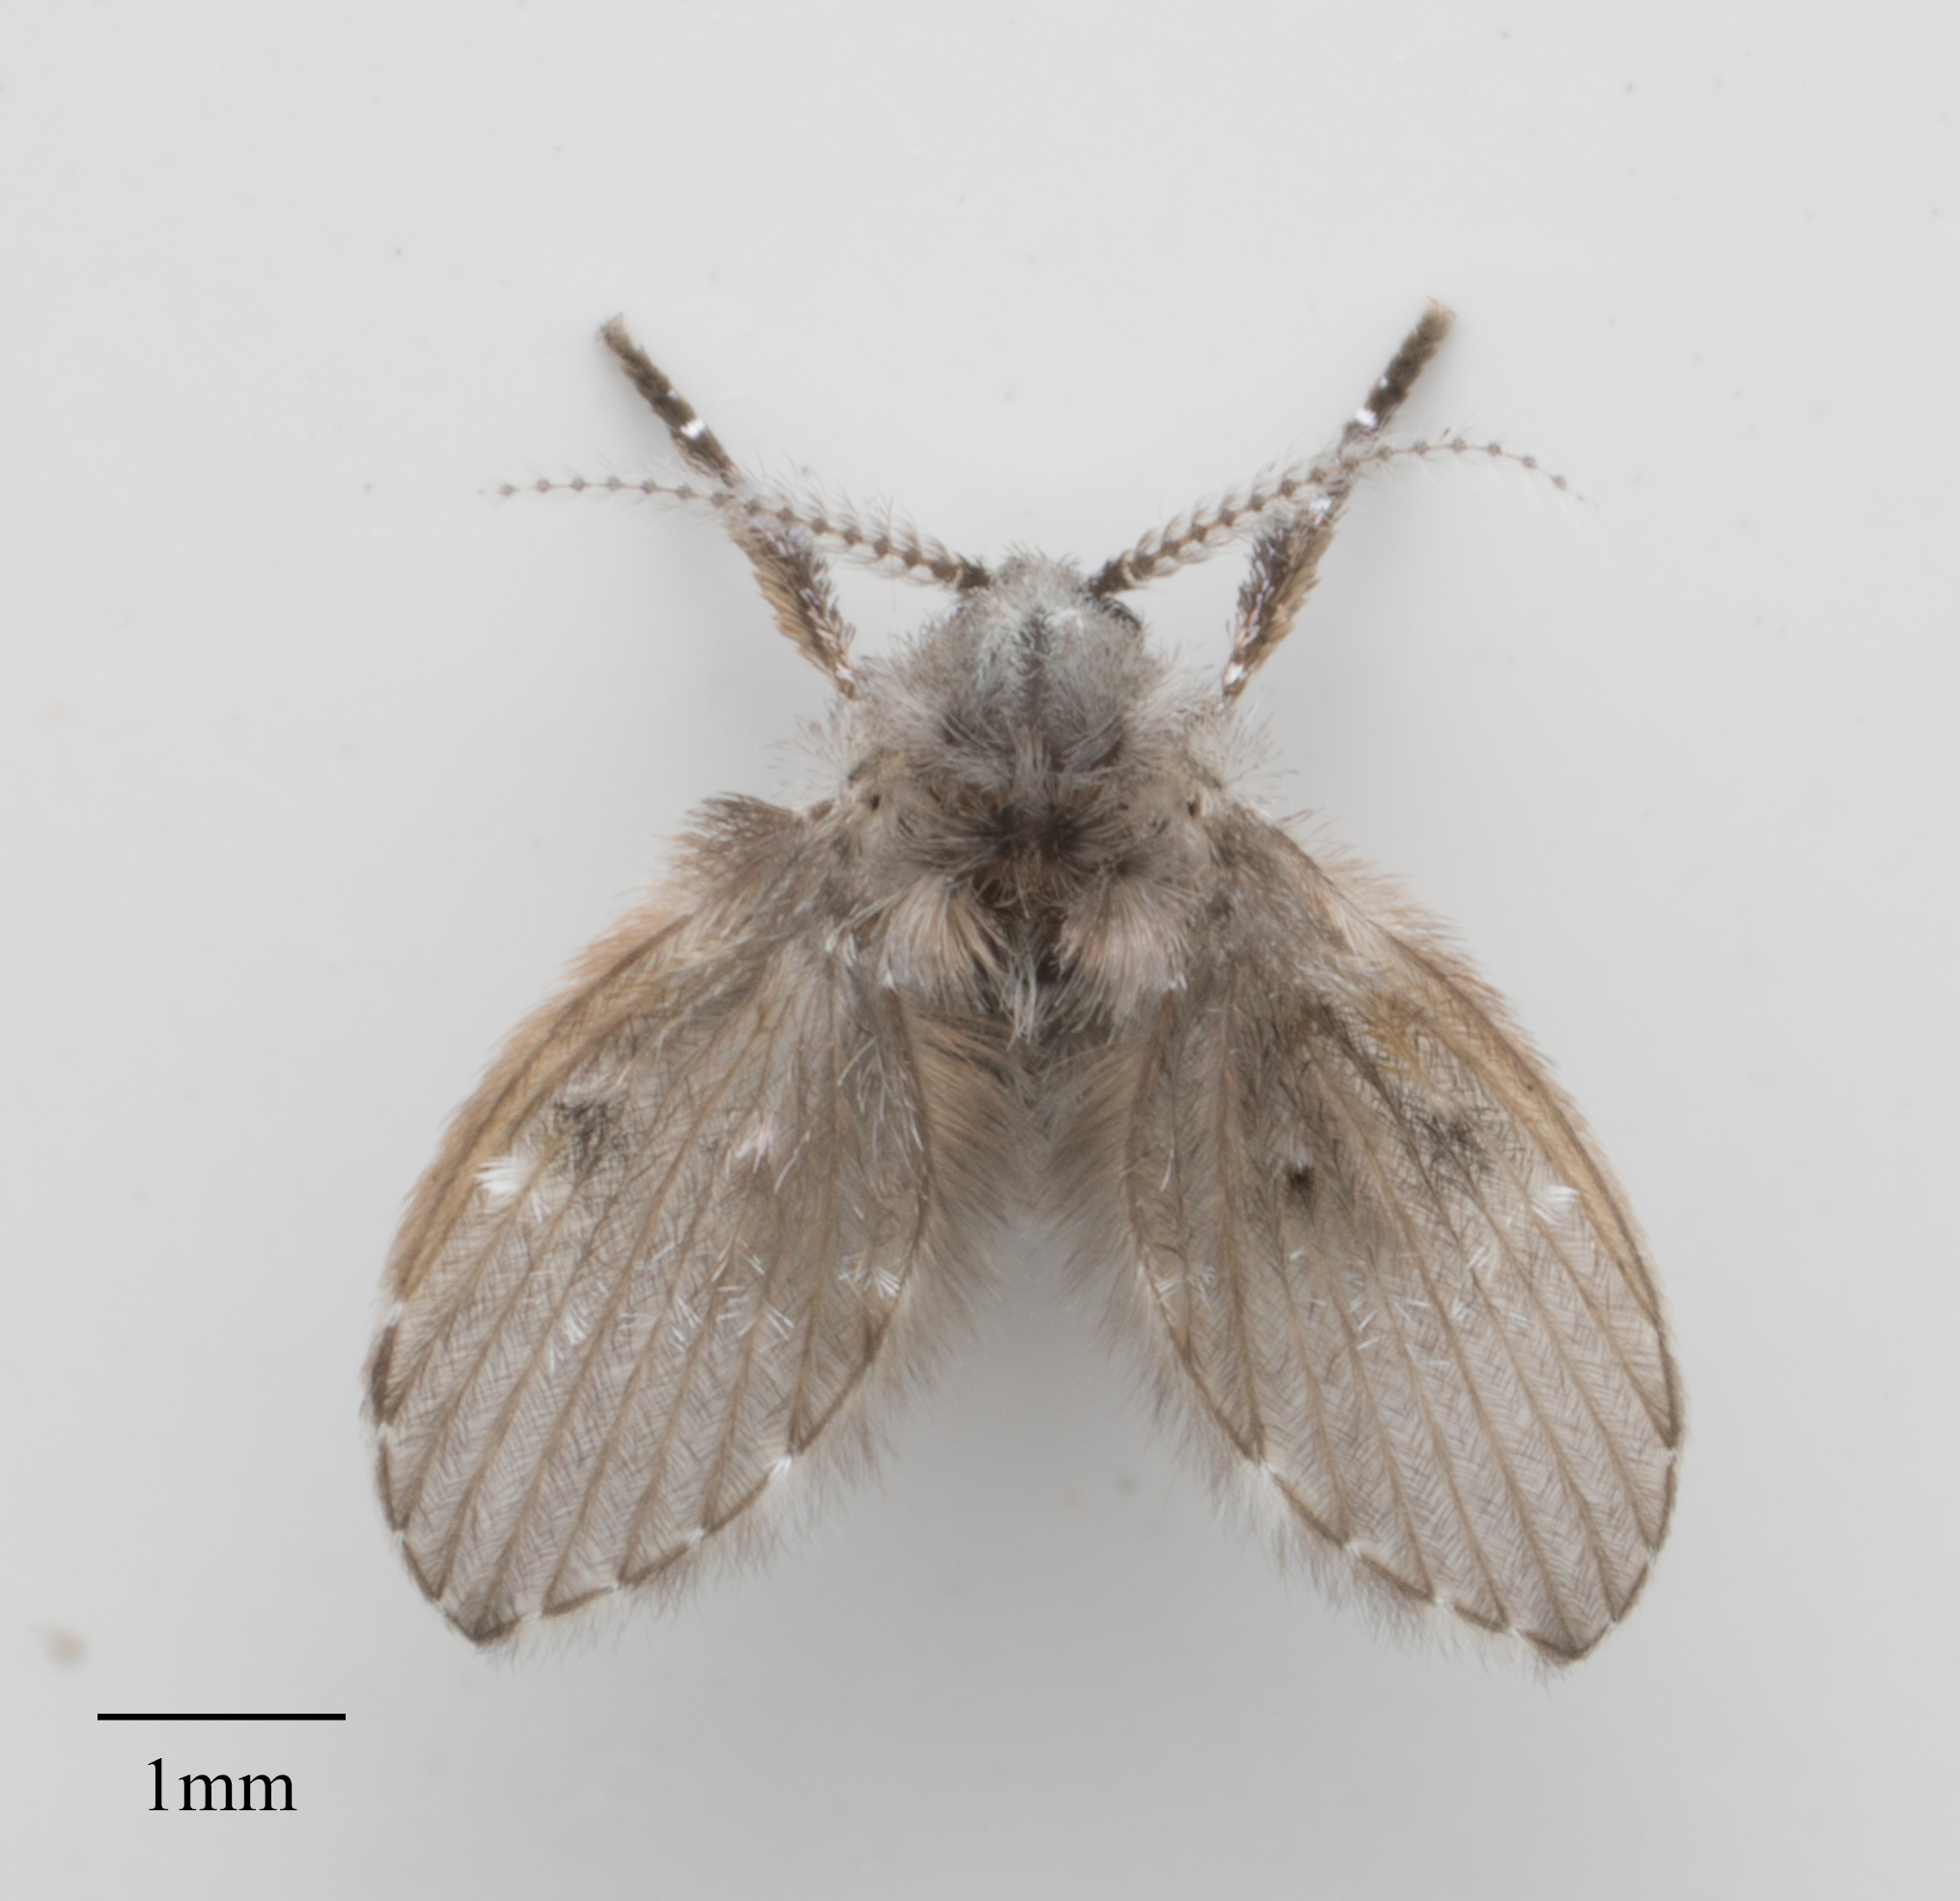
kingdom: Animalia
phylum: Arthropoda
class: Insecta
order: Diptera
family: Psychodidae
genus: Clogmia
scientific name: Clogmia albipunctatus
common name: White-spotted moth fly
